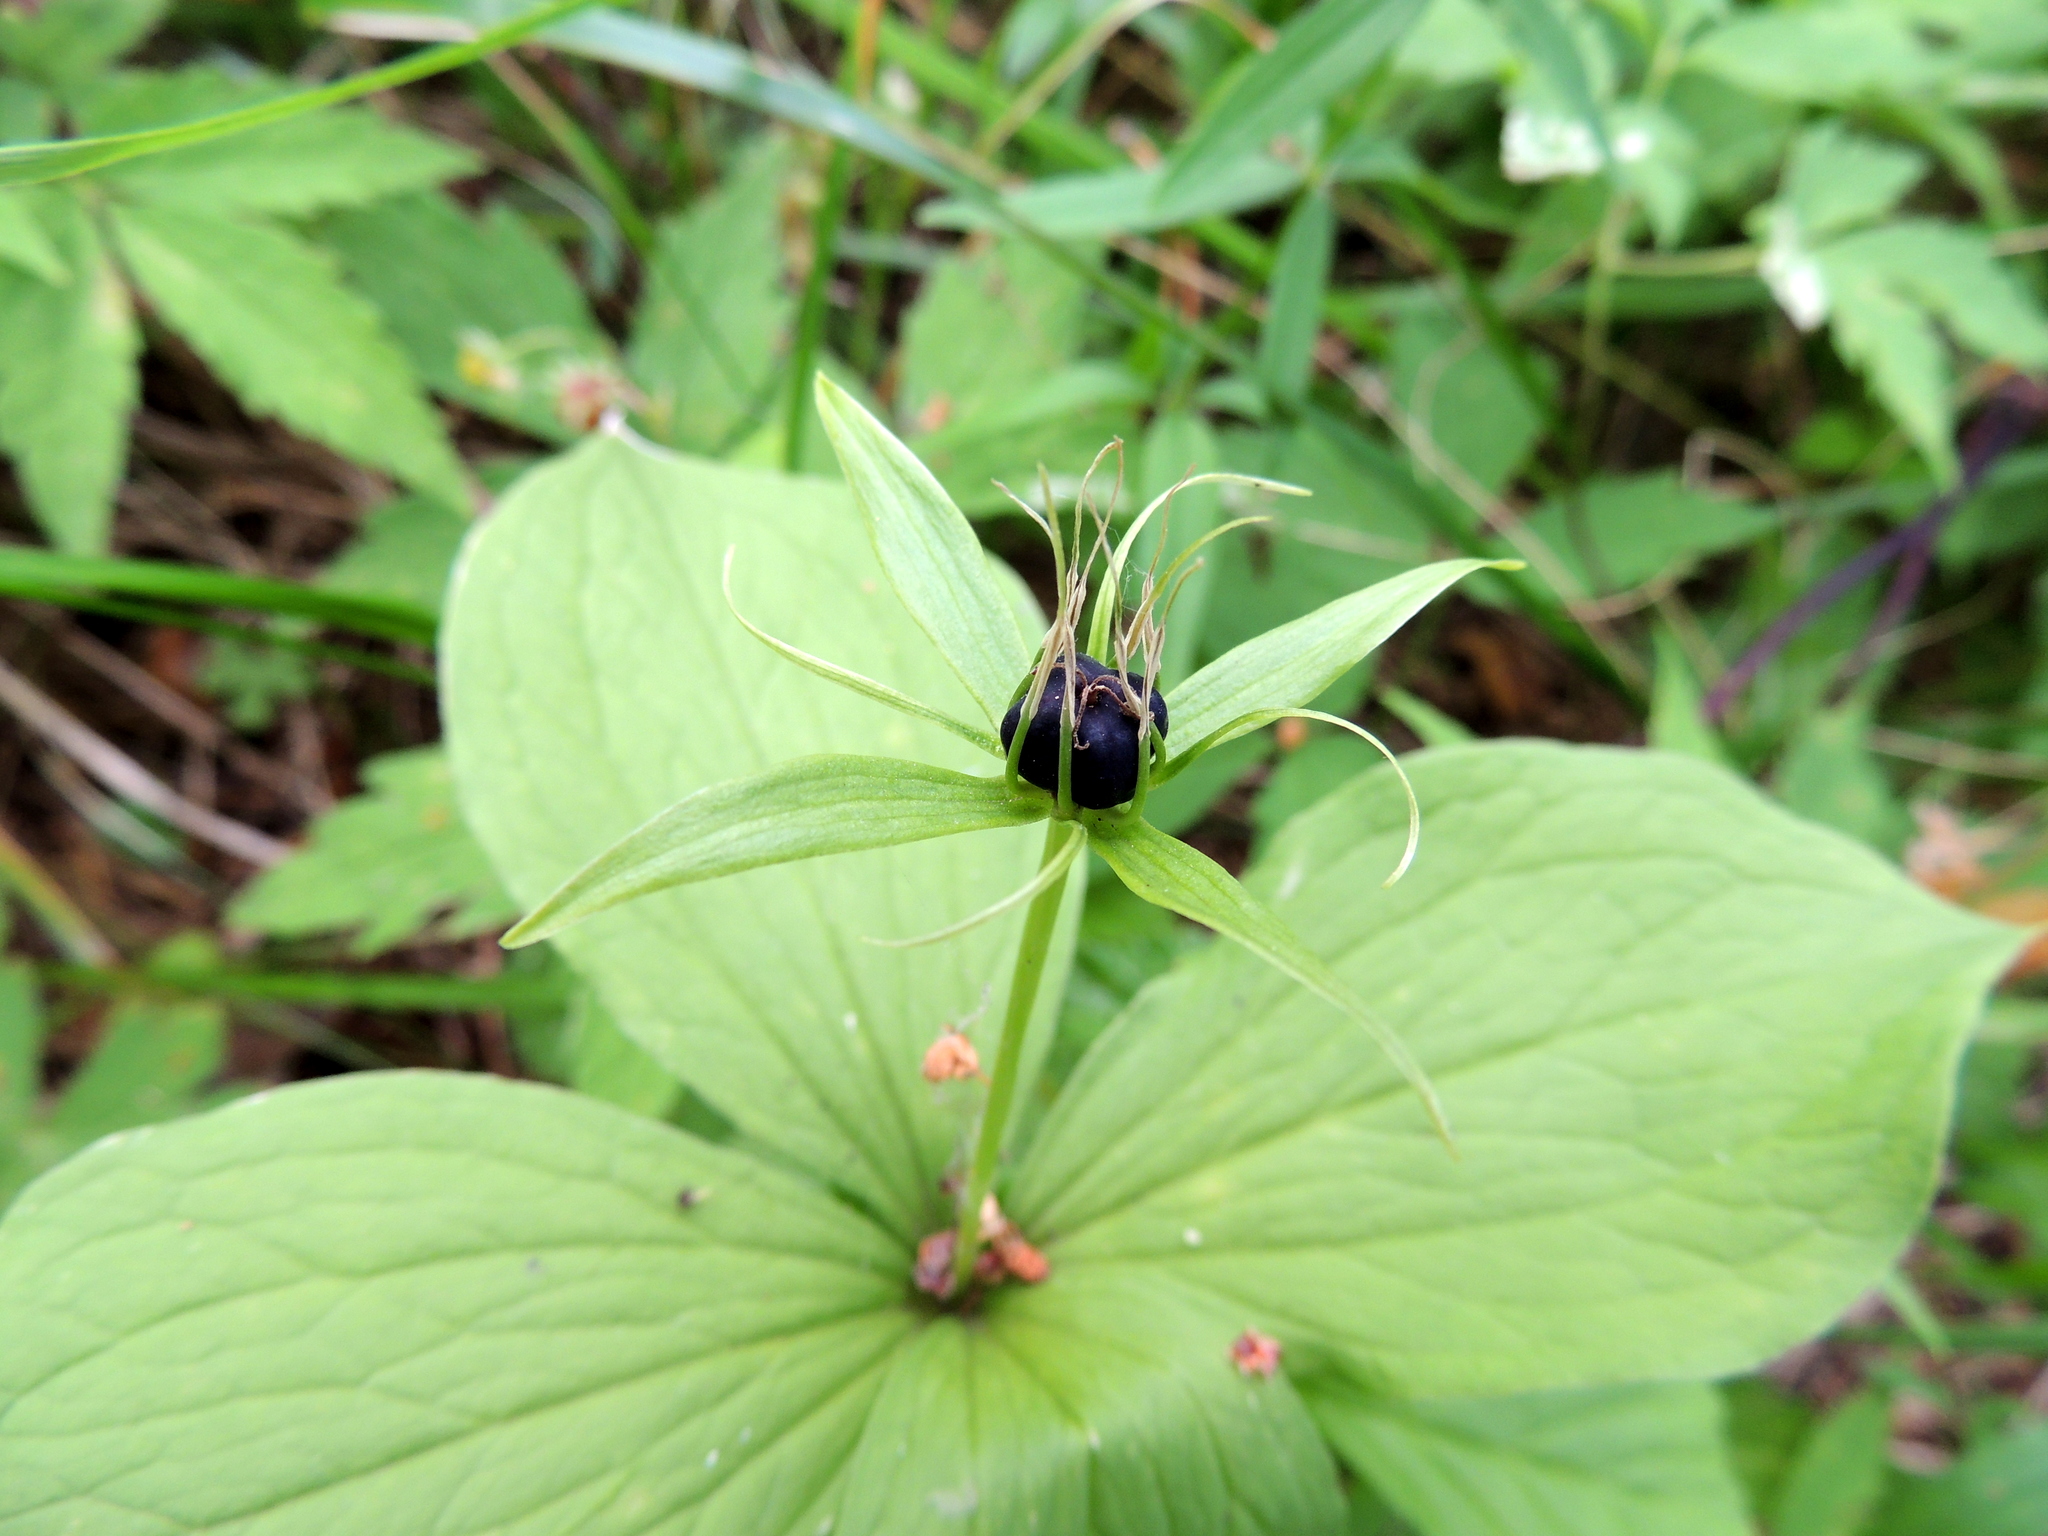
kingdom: Plantae
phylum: Tracheophyta
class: Liliopsida
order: Liliales
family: Melanthiaceae
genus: Paris
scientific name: Paris quadrifolia
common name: Herb-paris
